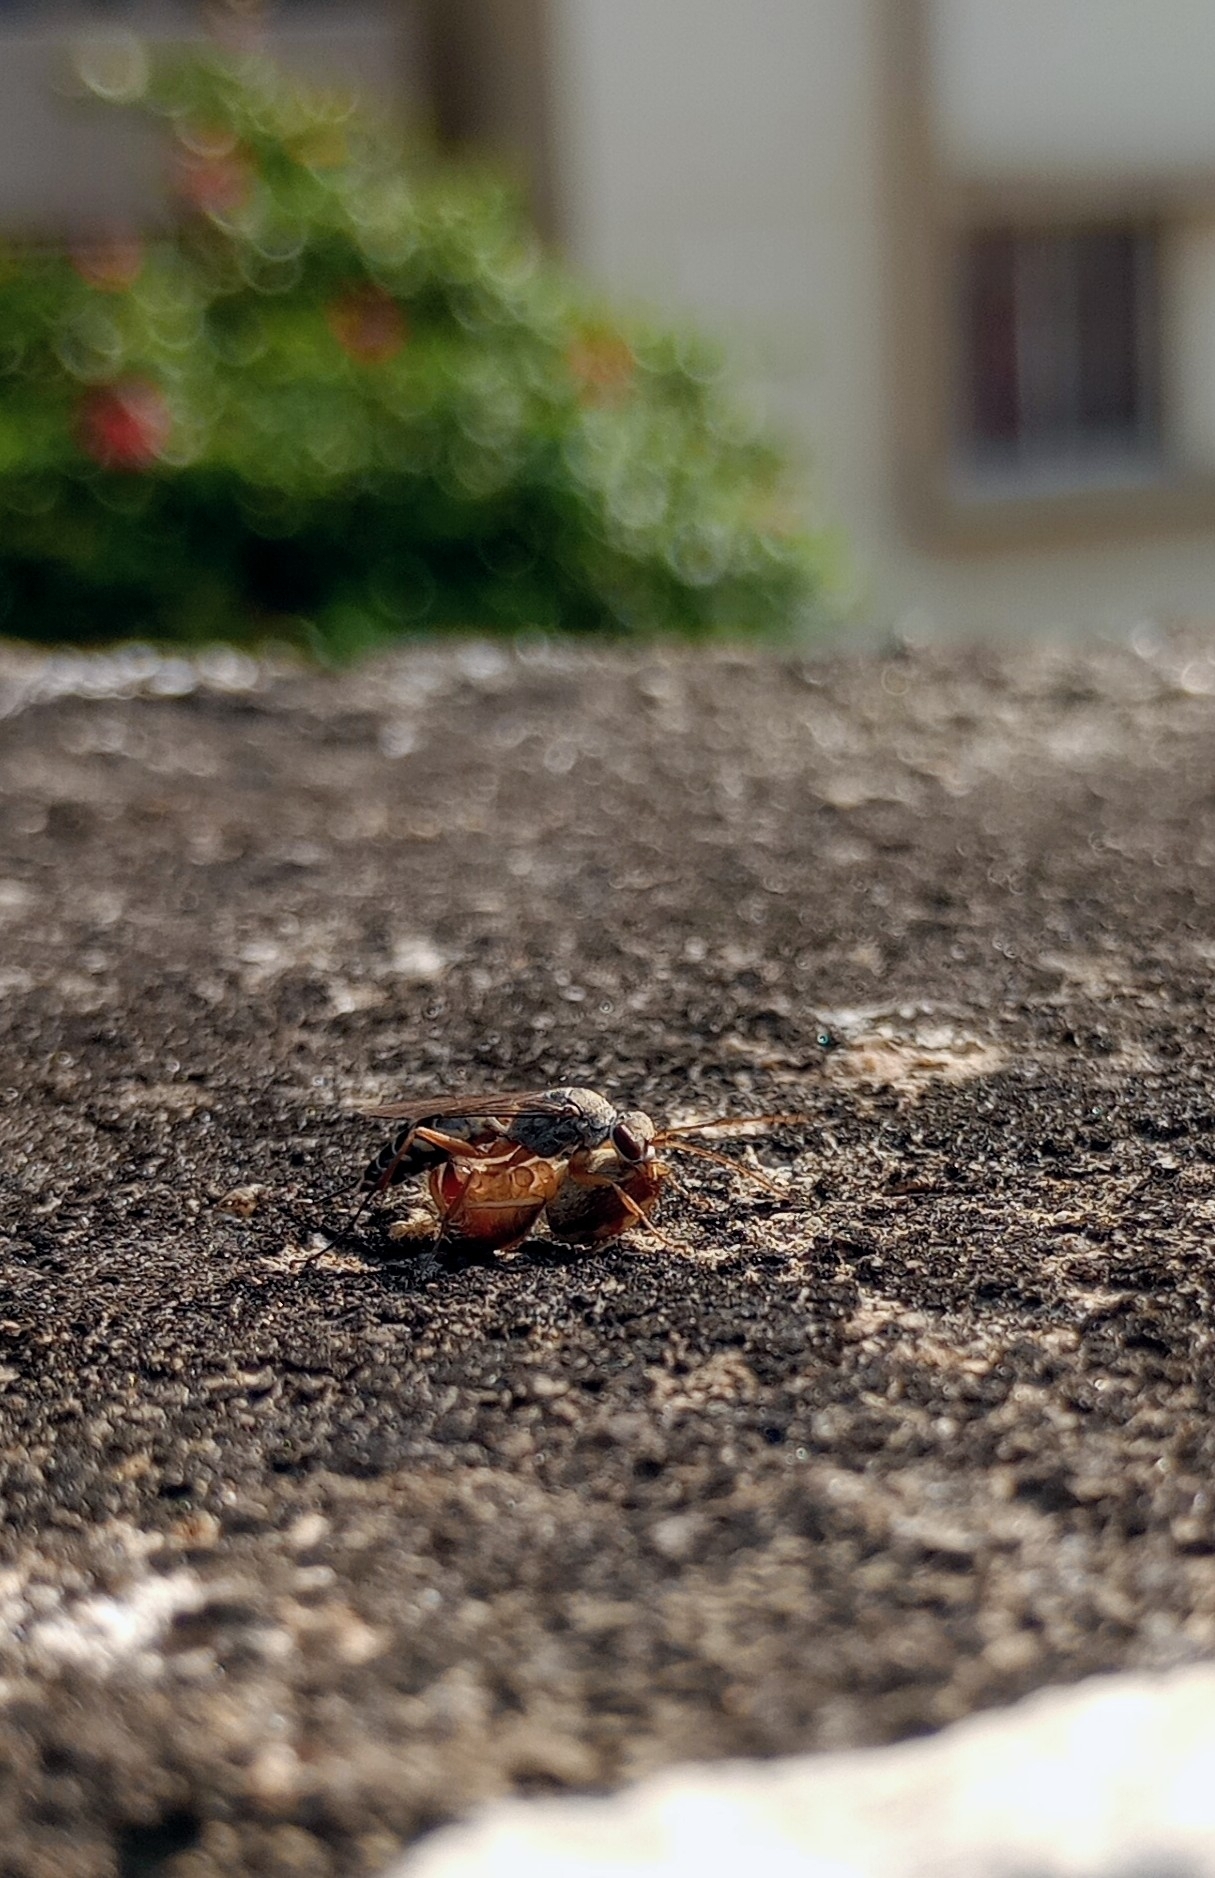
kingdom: Animalia
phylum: Arthropoda
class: Insecta
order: Hymenoptera
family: Pompilidae
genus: Machaerothrix
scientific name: Machaerothrix salticidus
